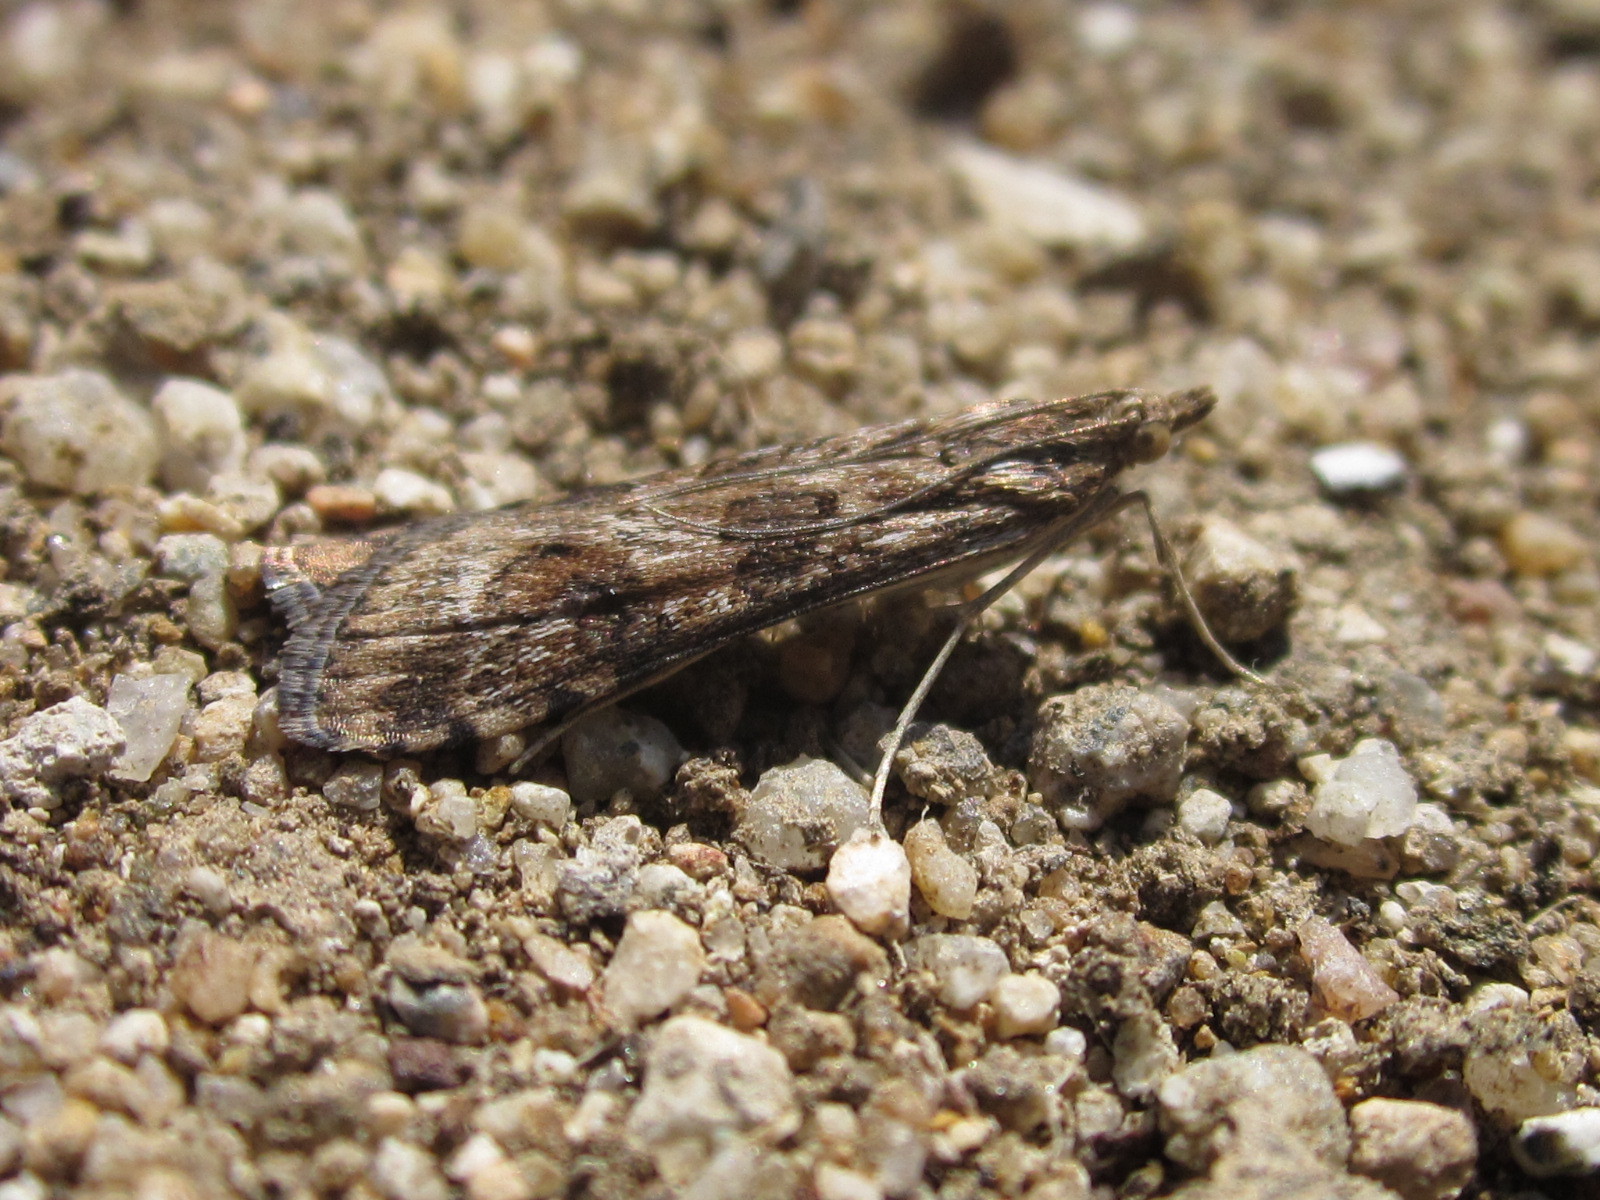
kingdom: Animalia
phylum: Arthropoda
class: Insecta
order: Lepidoptera
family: Crambidae
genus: Nomophila
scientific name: Nomophila distinctalis
